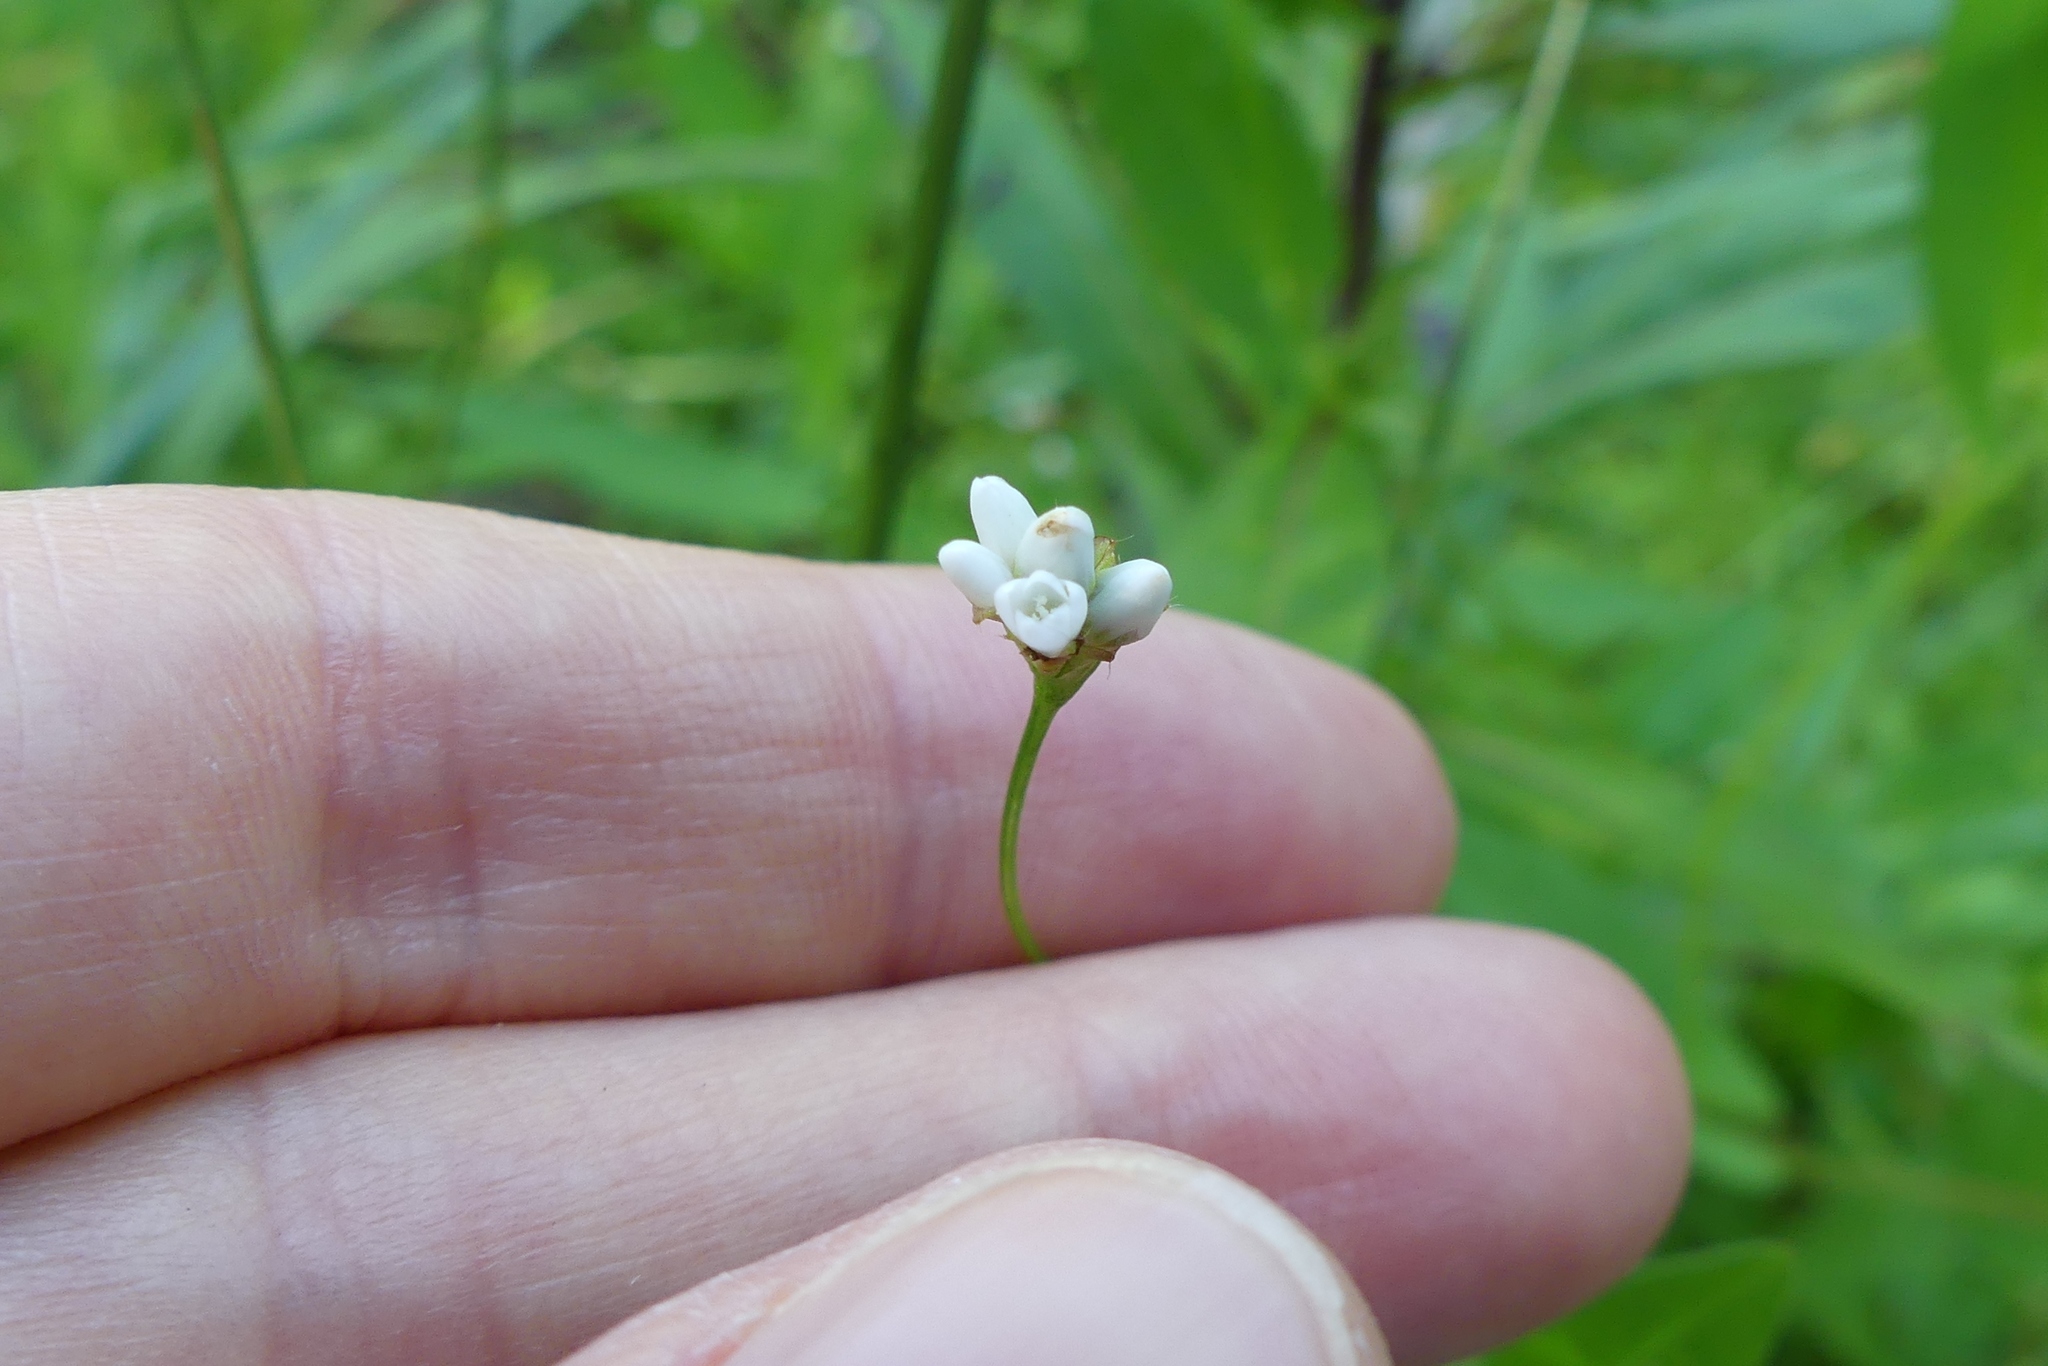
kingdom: Plantae
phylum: Tracheophyta
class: Magnoliopsida
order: Caryophyllales
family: Polygonaceae
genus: Persicaria
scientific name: Persicaria sagittata
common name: American tearthumb
